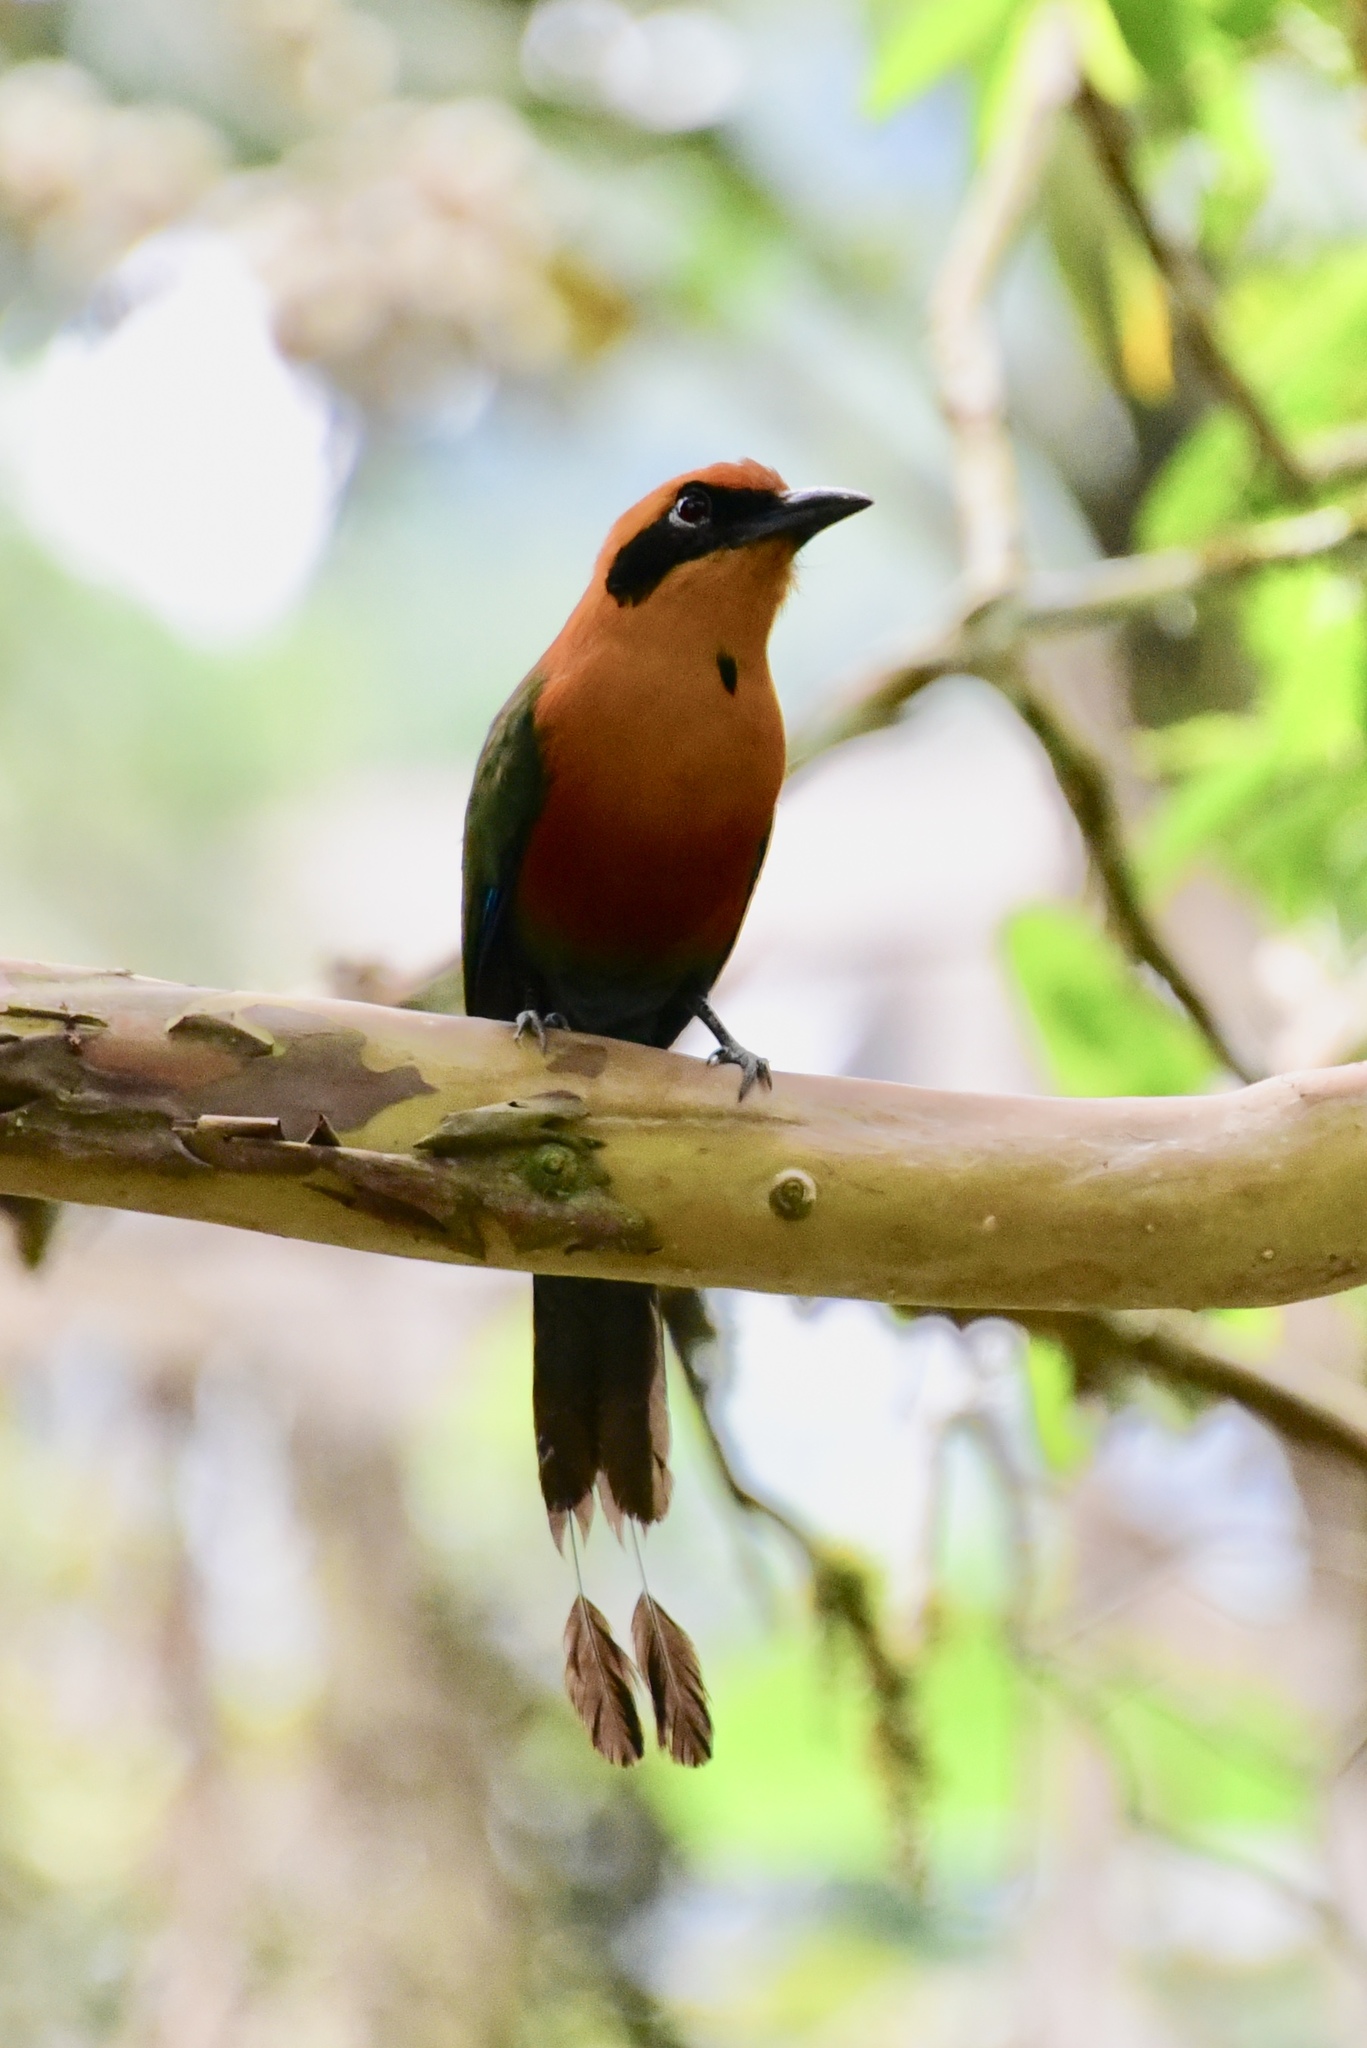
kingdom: Animalia
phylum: Chordata
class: Aves
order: Coraciiformes
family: Momotidae
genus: Baryphthengus
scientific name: Baryphthengus martii
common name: Rufous motmot
